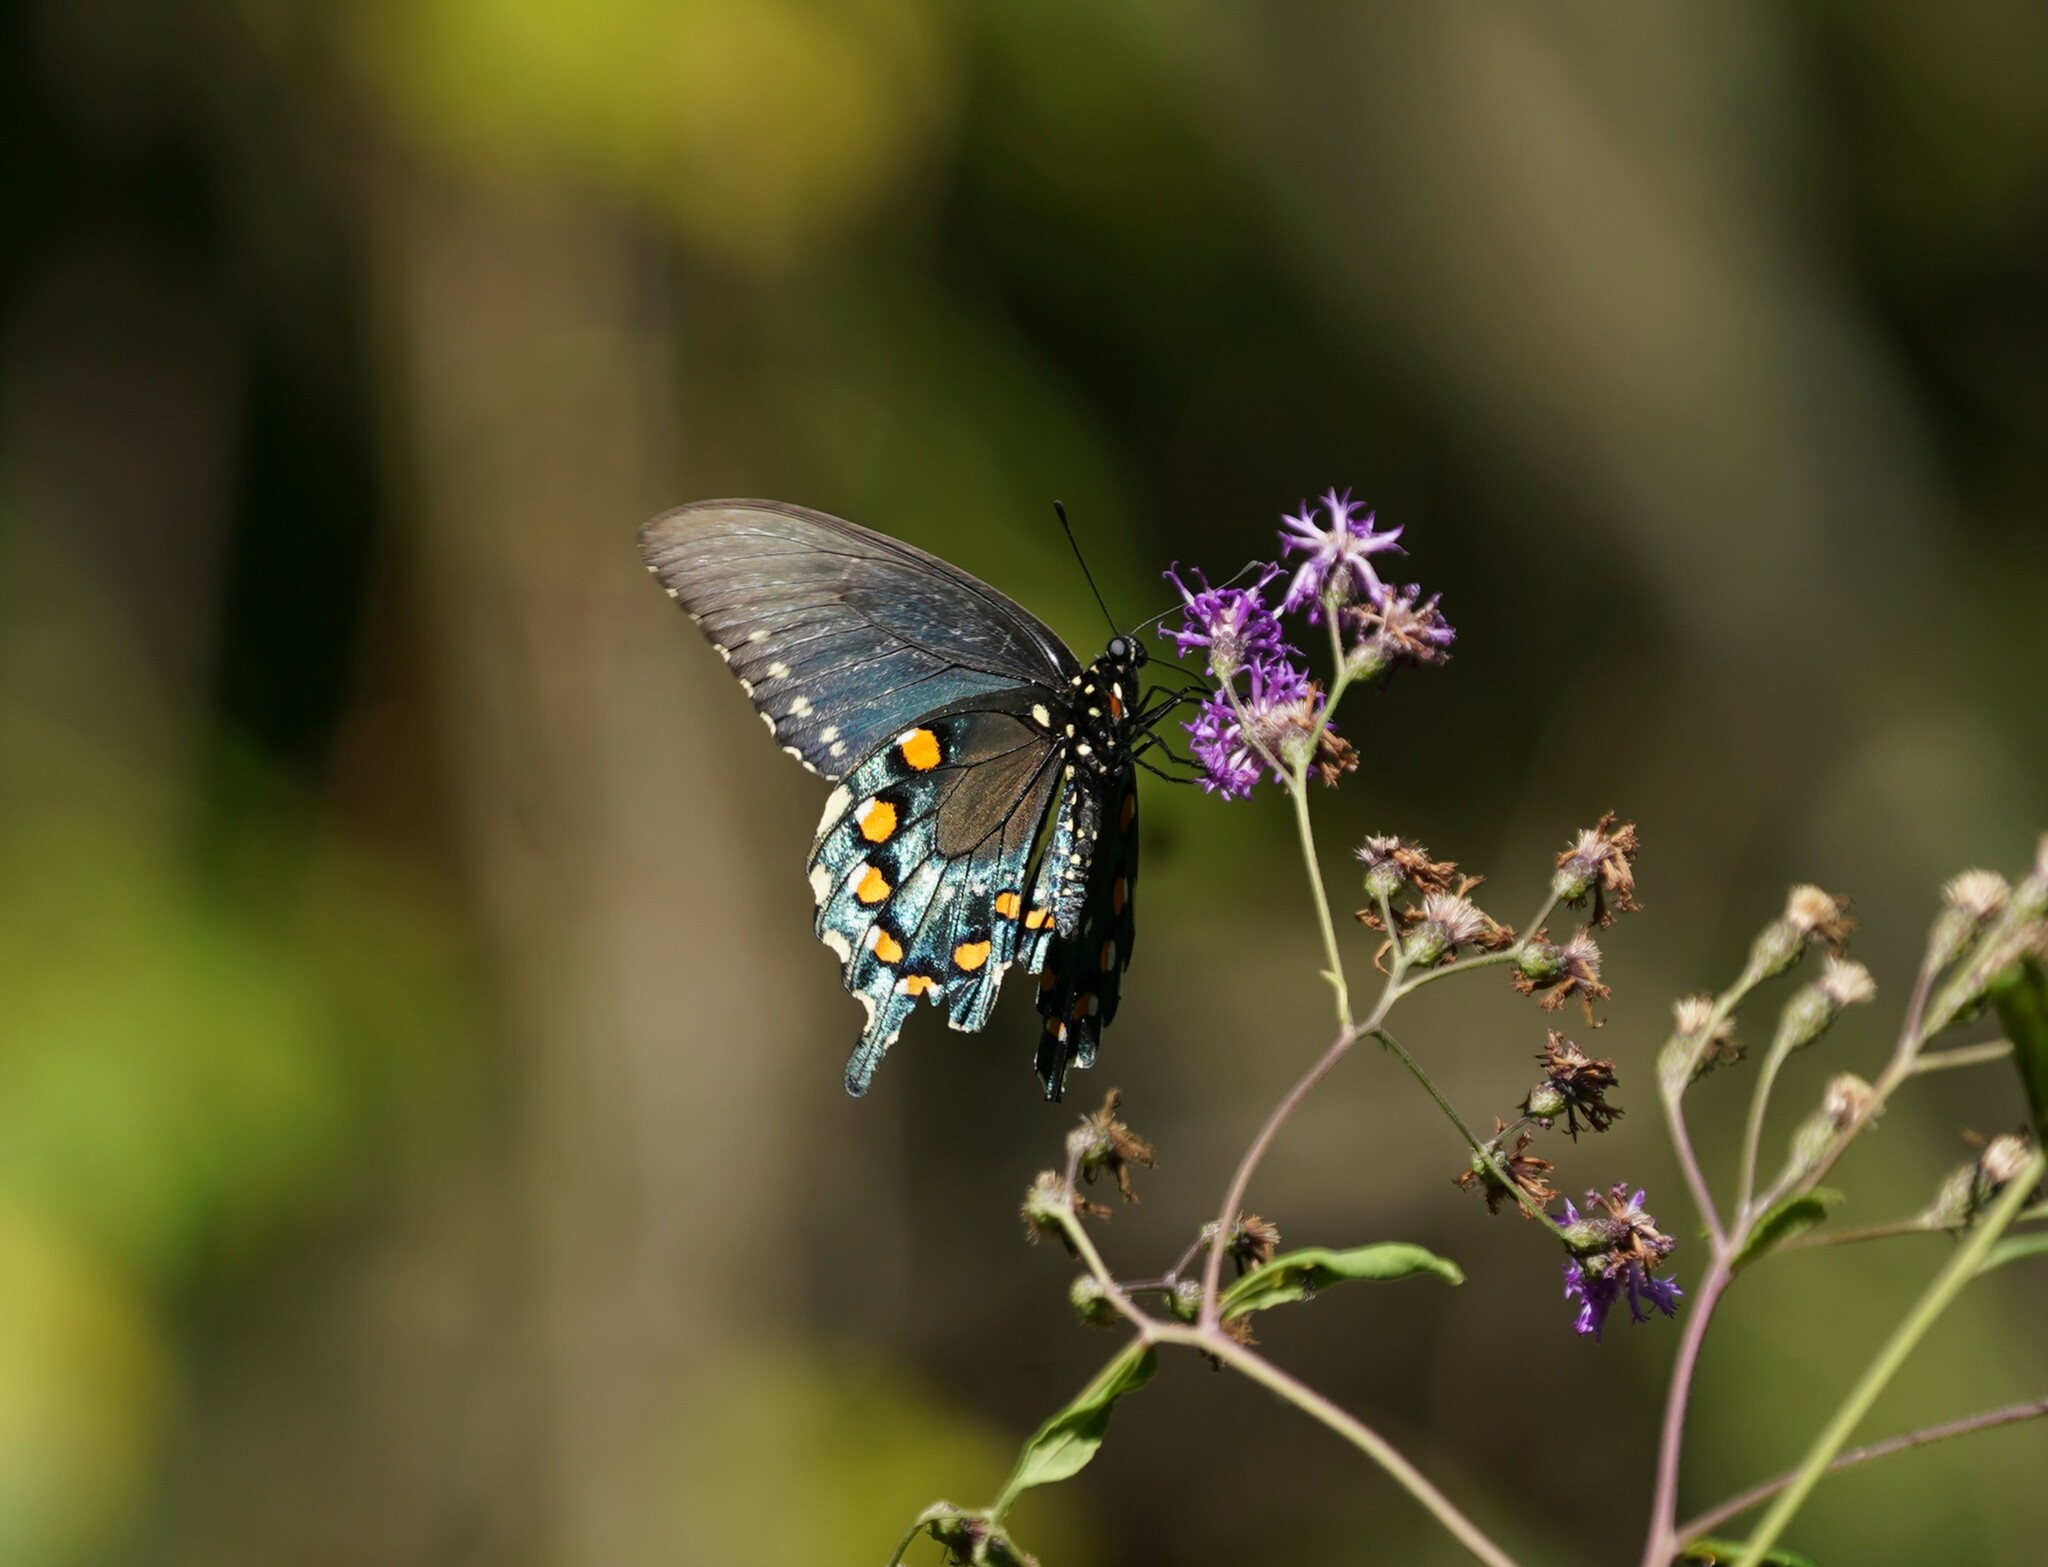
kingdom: Animalia
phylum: Arthropoda
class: Insecta
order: Lepidoptera
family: Papilionidae
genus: Battus
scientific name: Battus philenor
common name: Pipevine swallowtail
